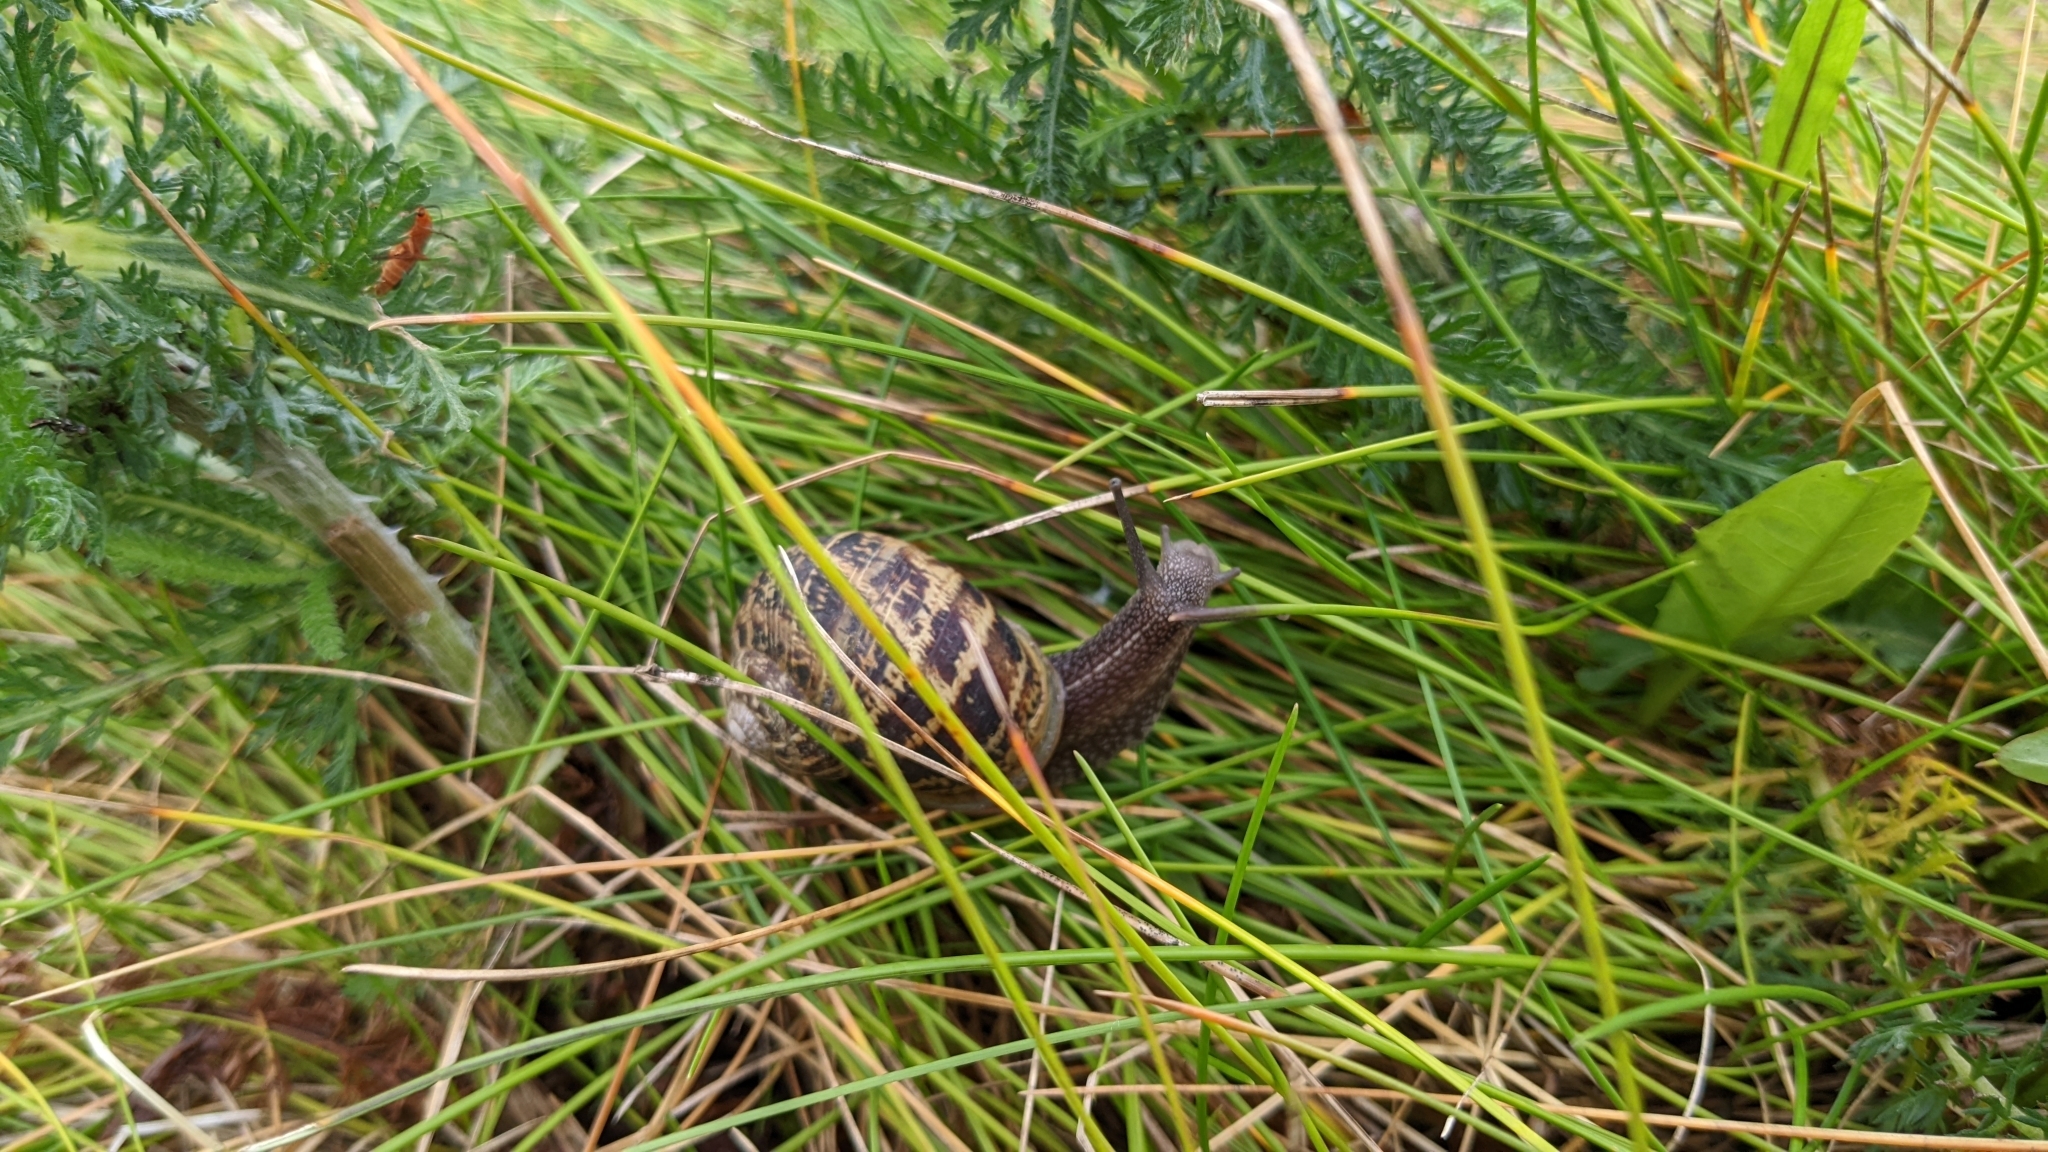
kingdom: Animalia
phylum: Mollusca
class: Gastropoda
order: Stylommatophora
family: Helicidae
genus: Cornu
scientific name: Cornu aspersum
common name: Brown garden snail
